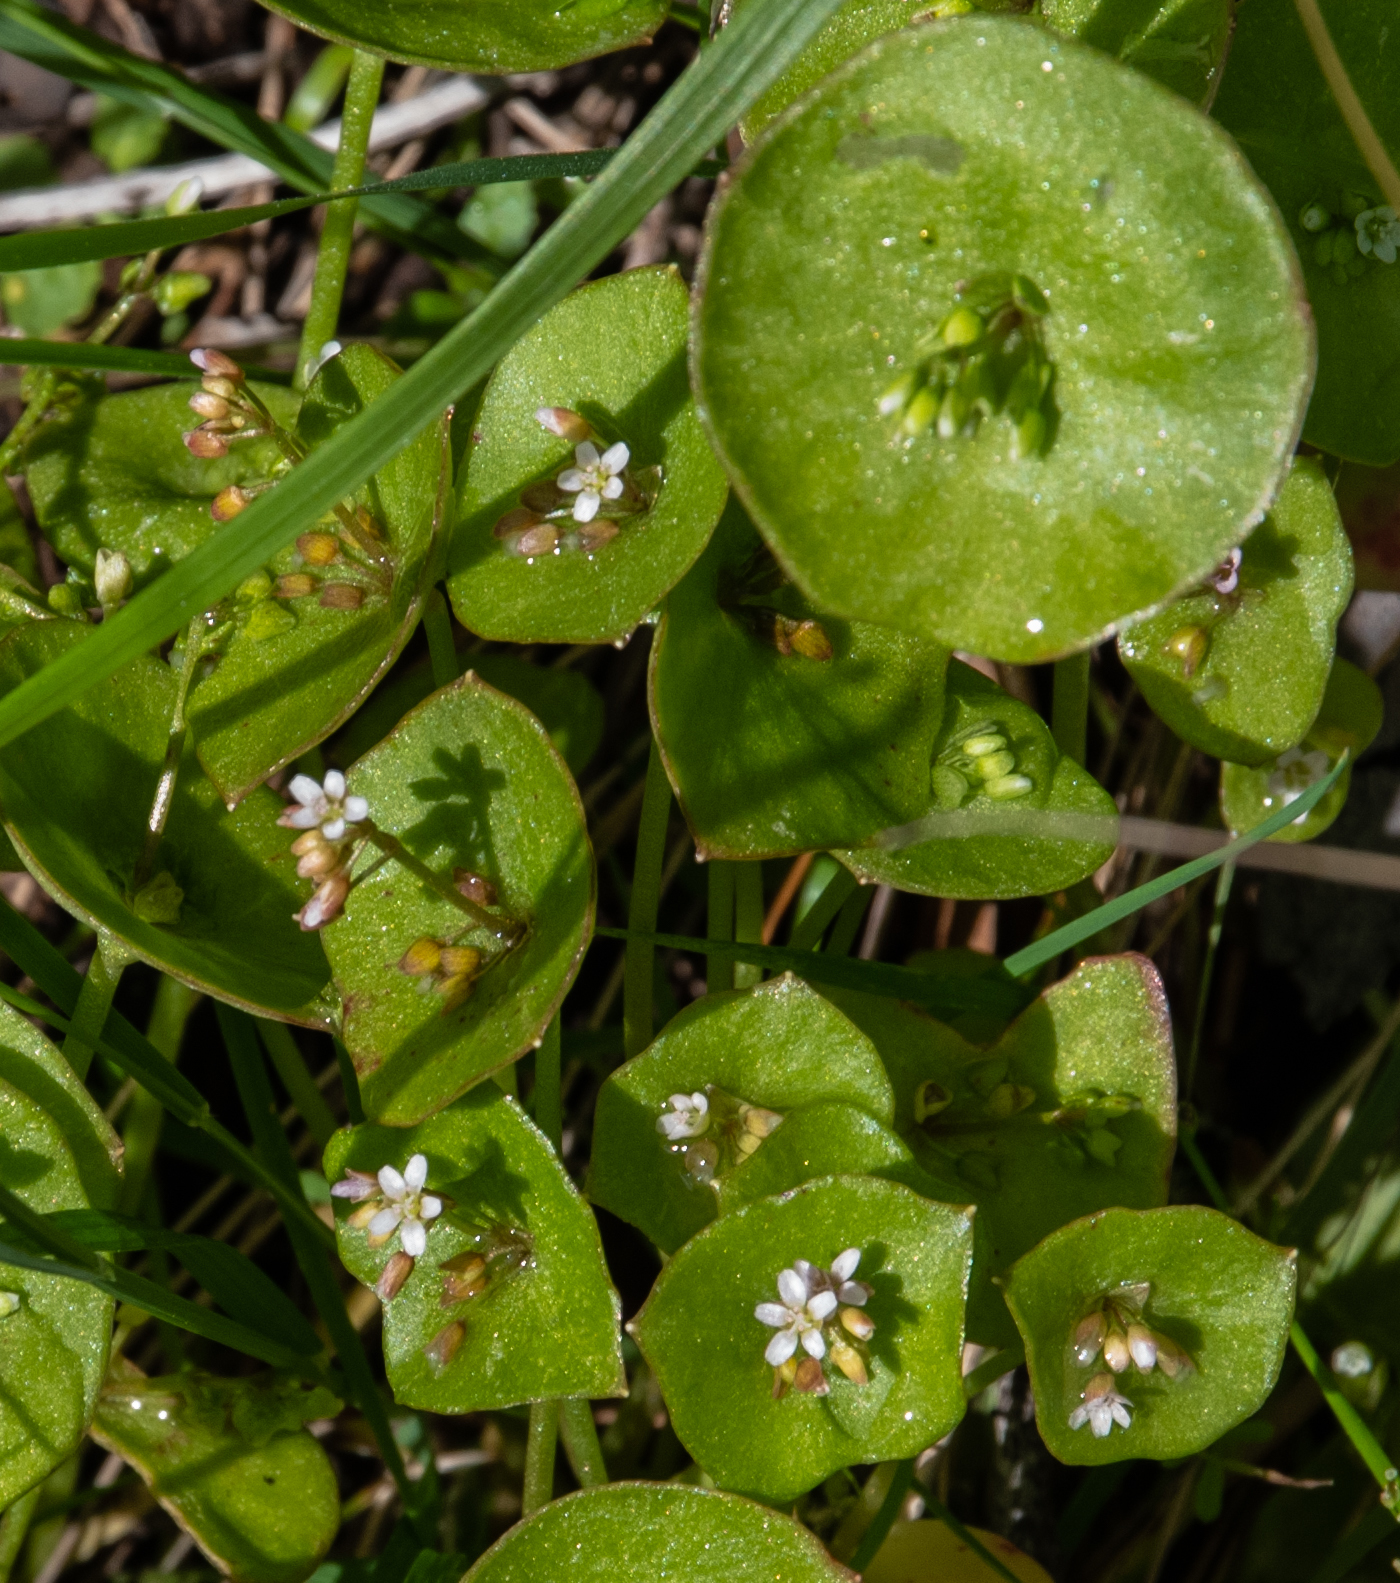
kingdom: Plantae
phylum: Tracheophyta
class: Magnoliopsida
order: Caryophyllales
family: Montiaceae
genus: Claytonia
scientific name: Claytonia perfoliata
